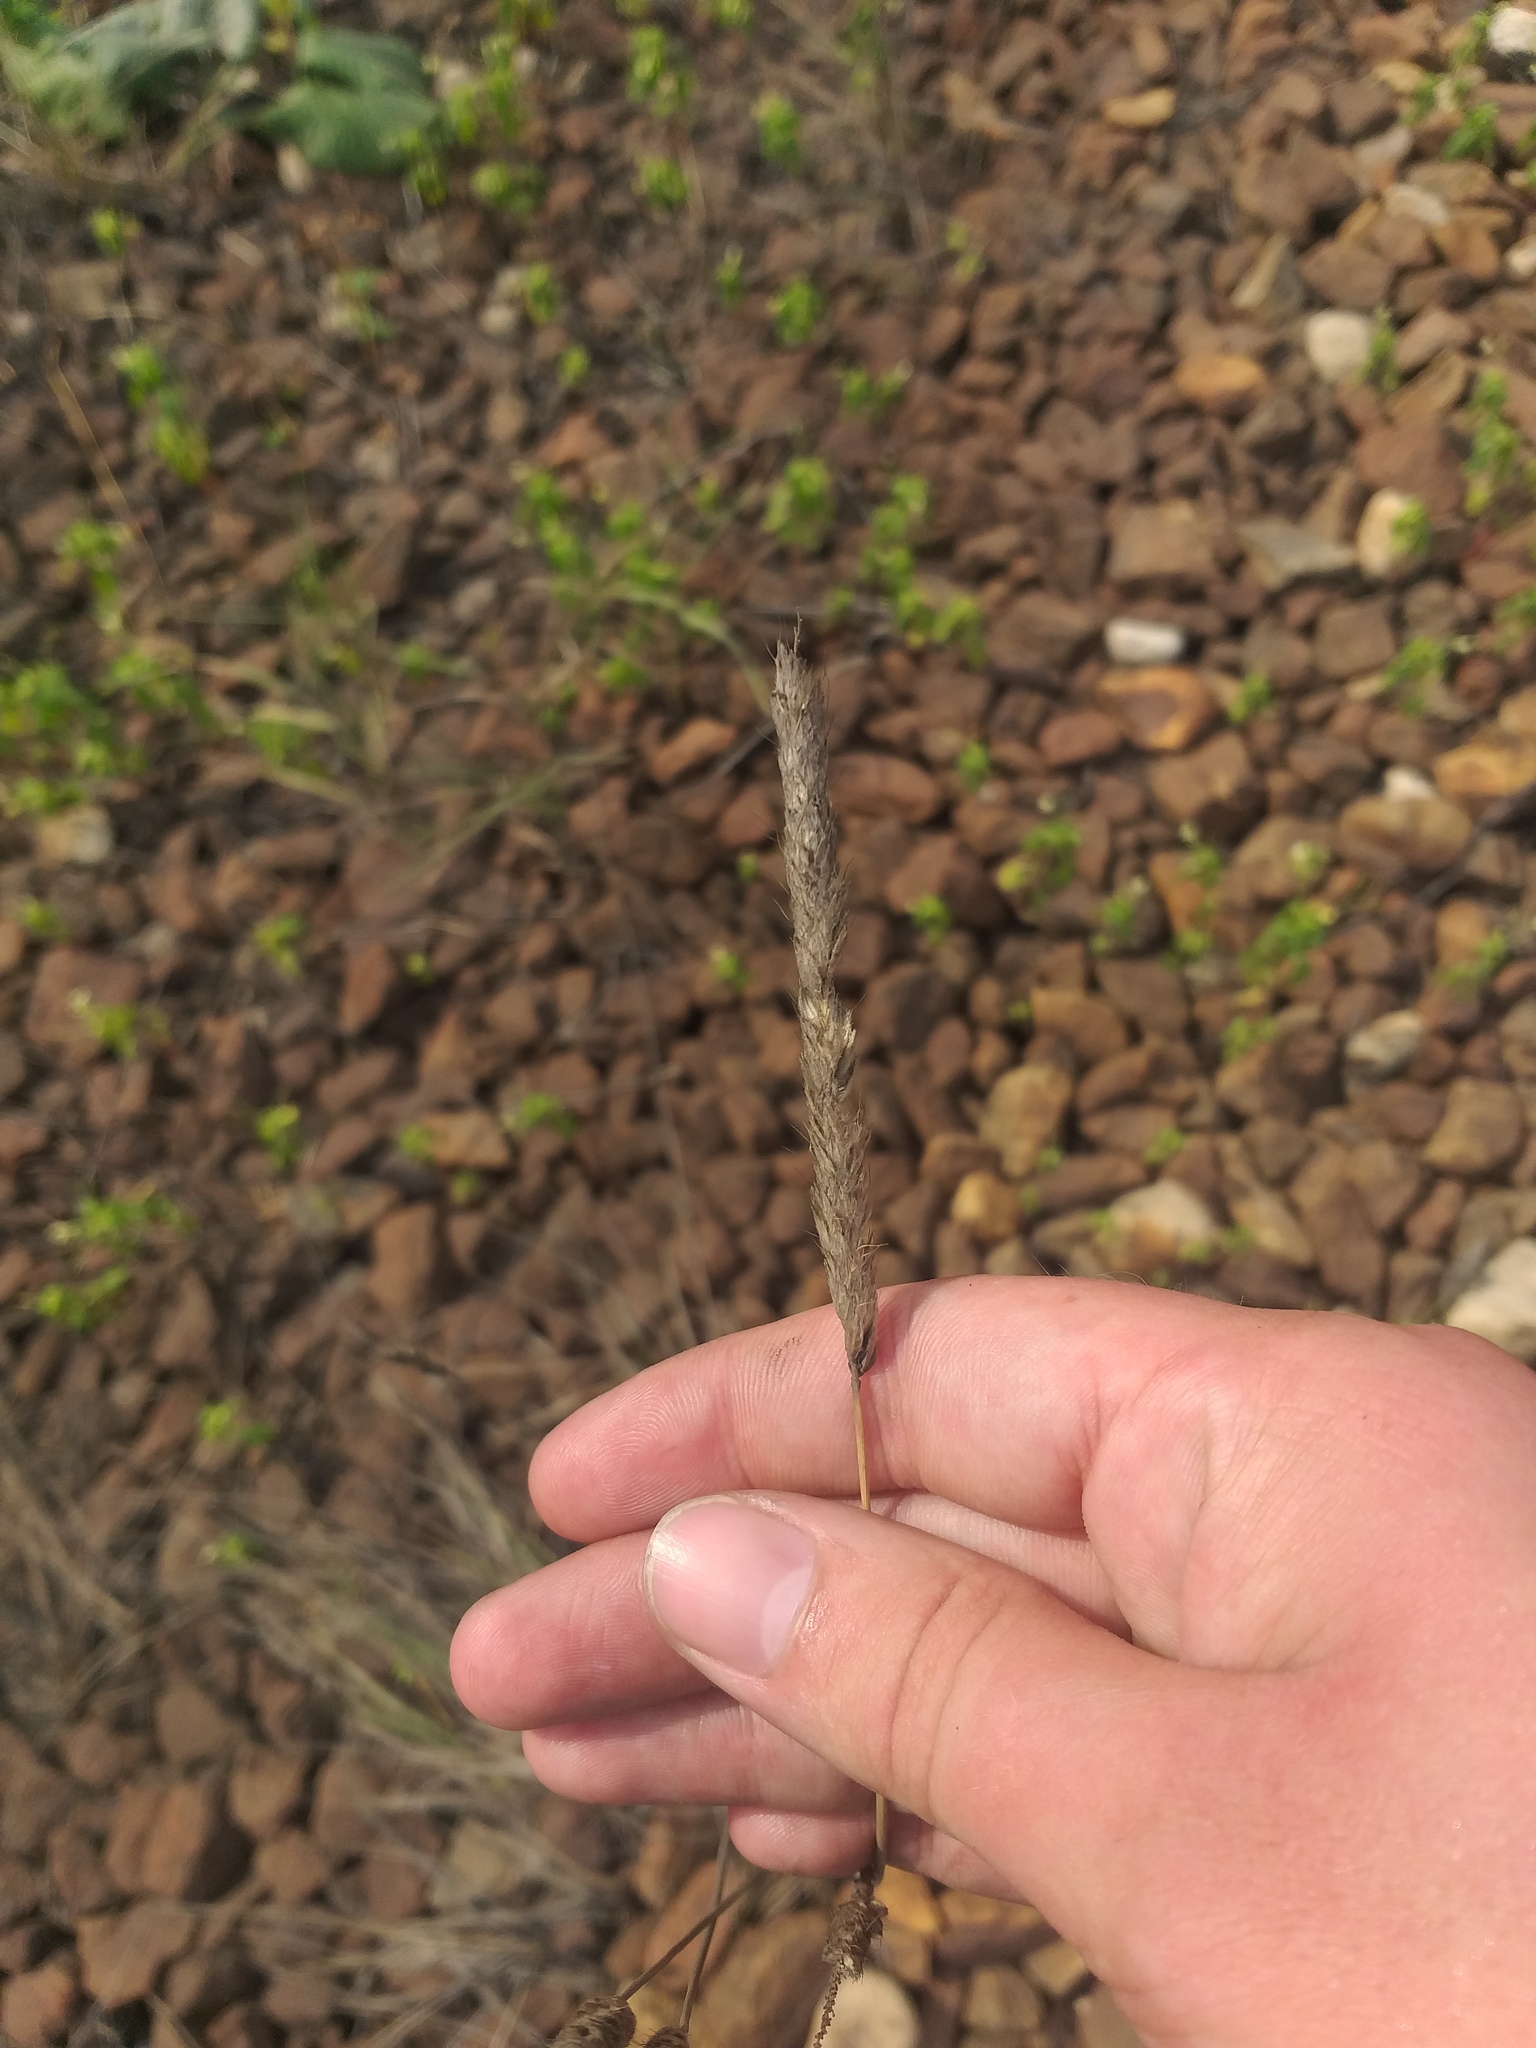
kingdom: Plantae
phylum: Tracheophyta
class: Liliopsida
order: Poales
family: Poaceae
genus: Alopecurus
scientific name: Alopecurus pratensis
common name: Meadow foxtail
